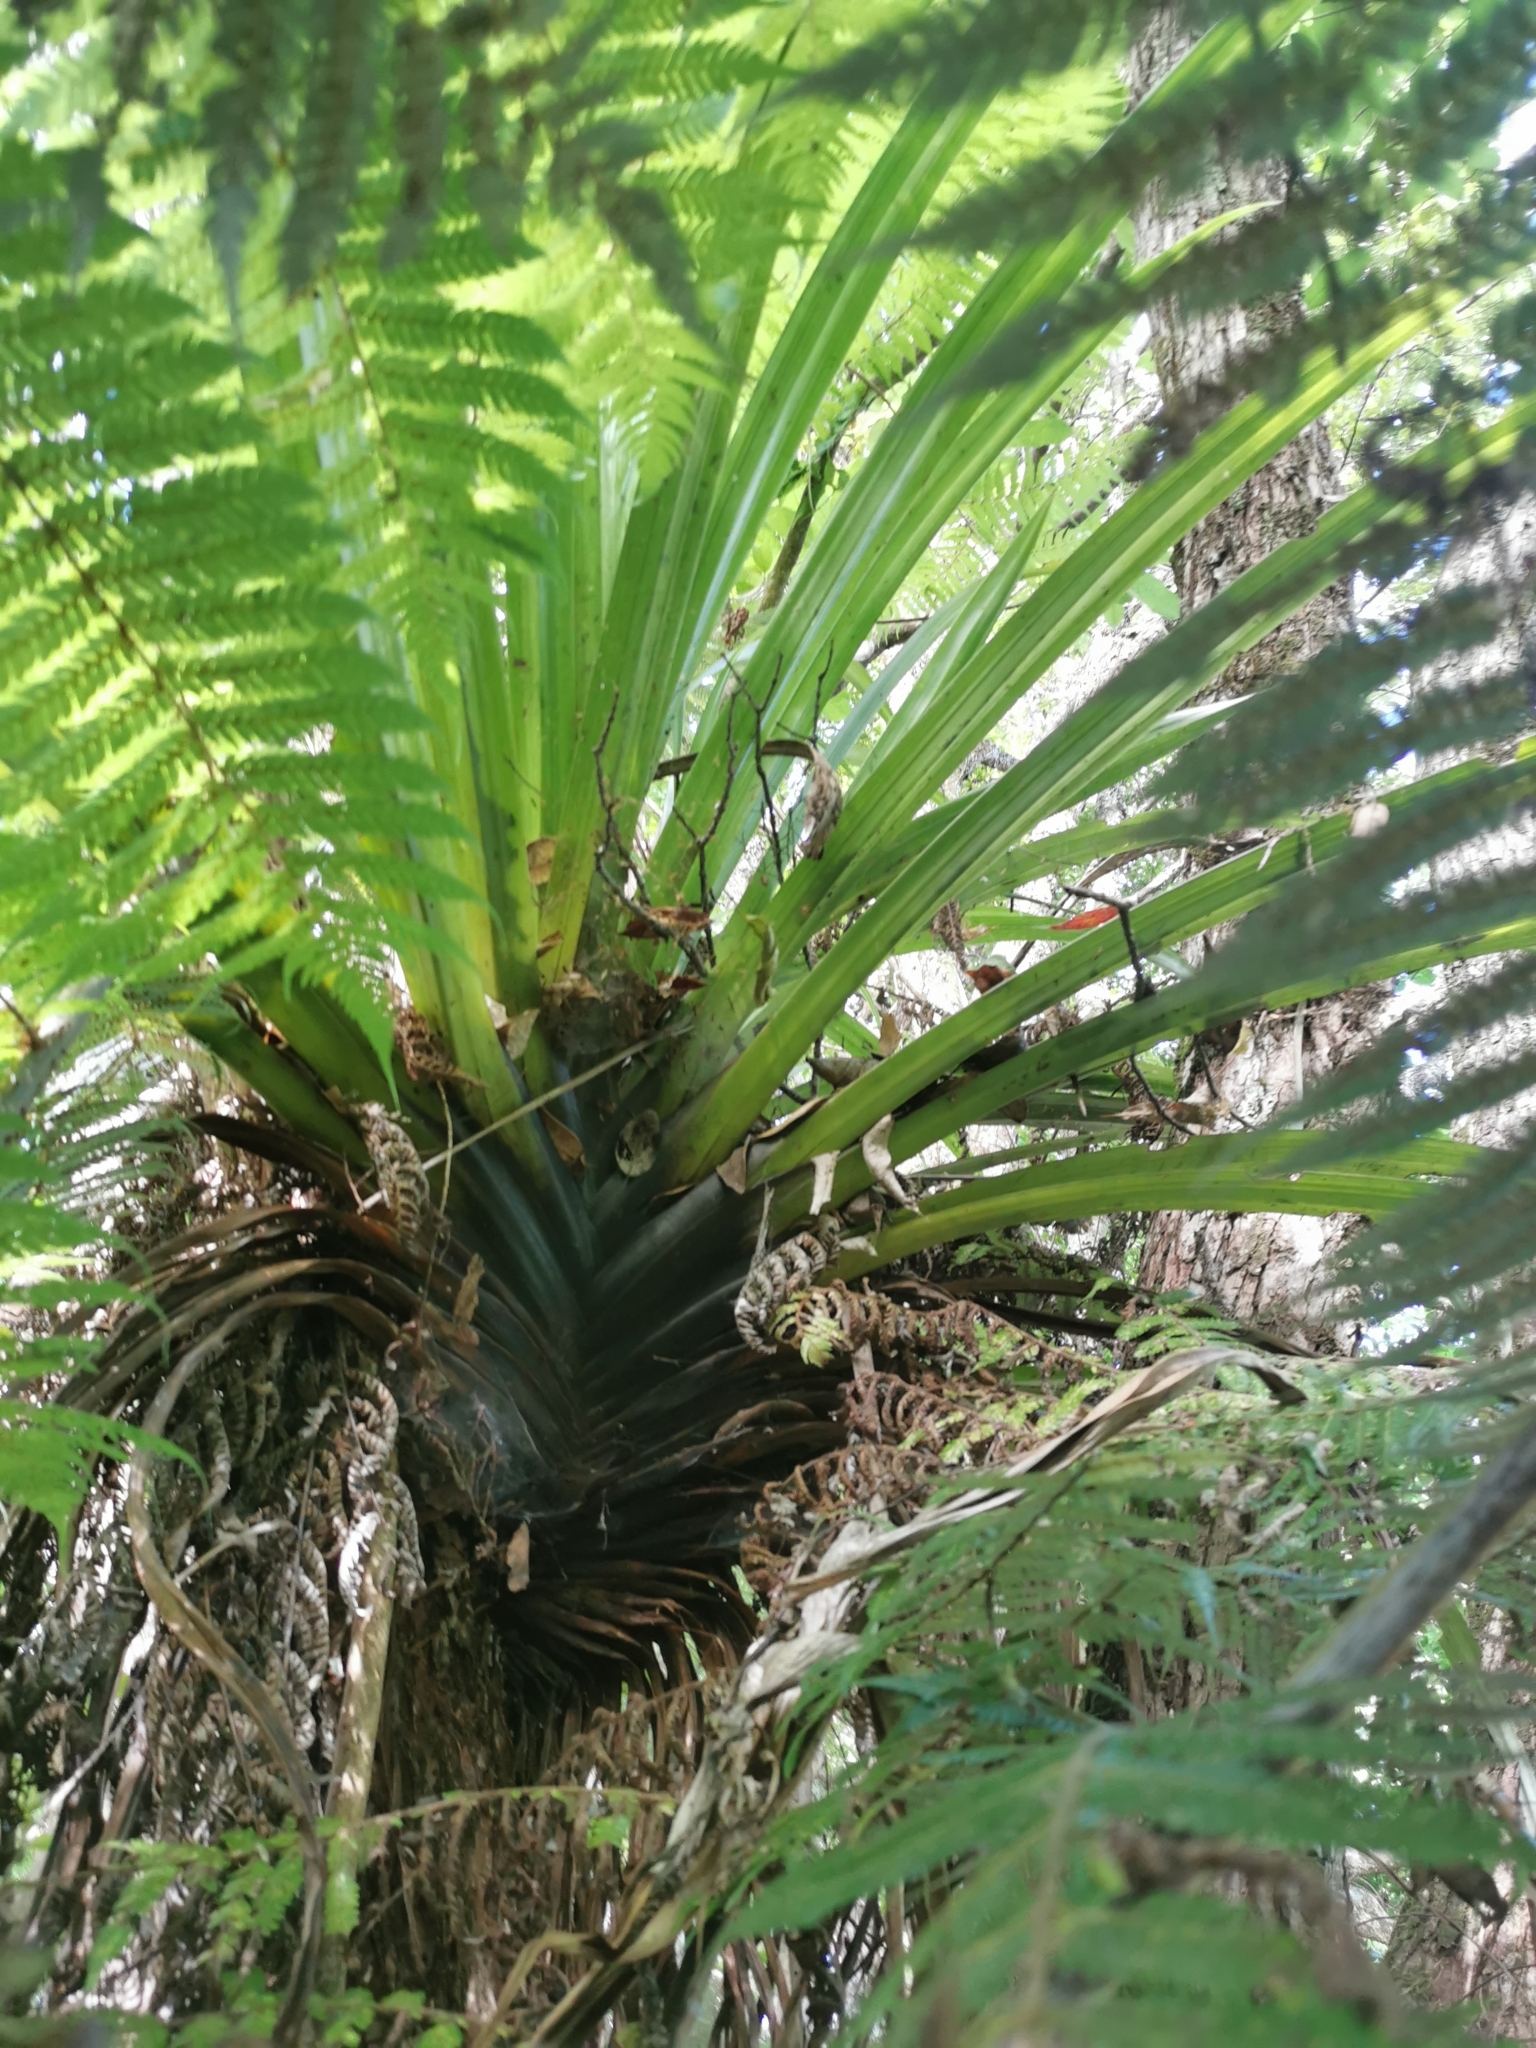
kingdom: Plantae
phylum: Tracheophyta
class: Liliopsida
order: Asparagales
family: Asteliaceae
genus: Astelia
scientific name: Astelia hastata
